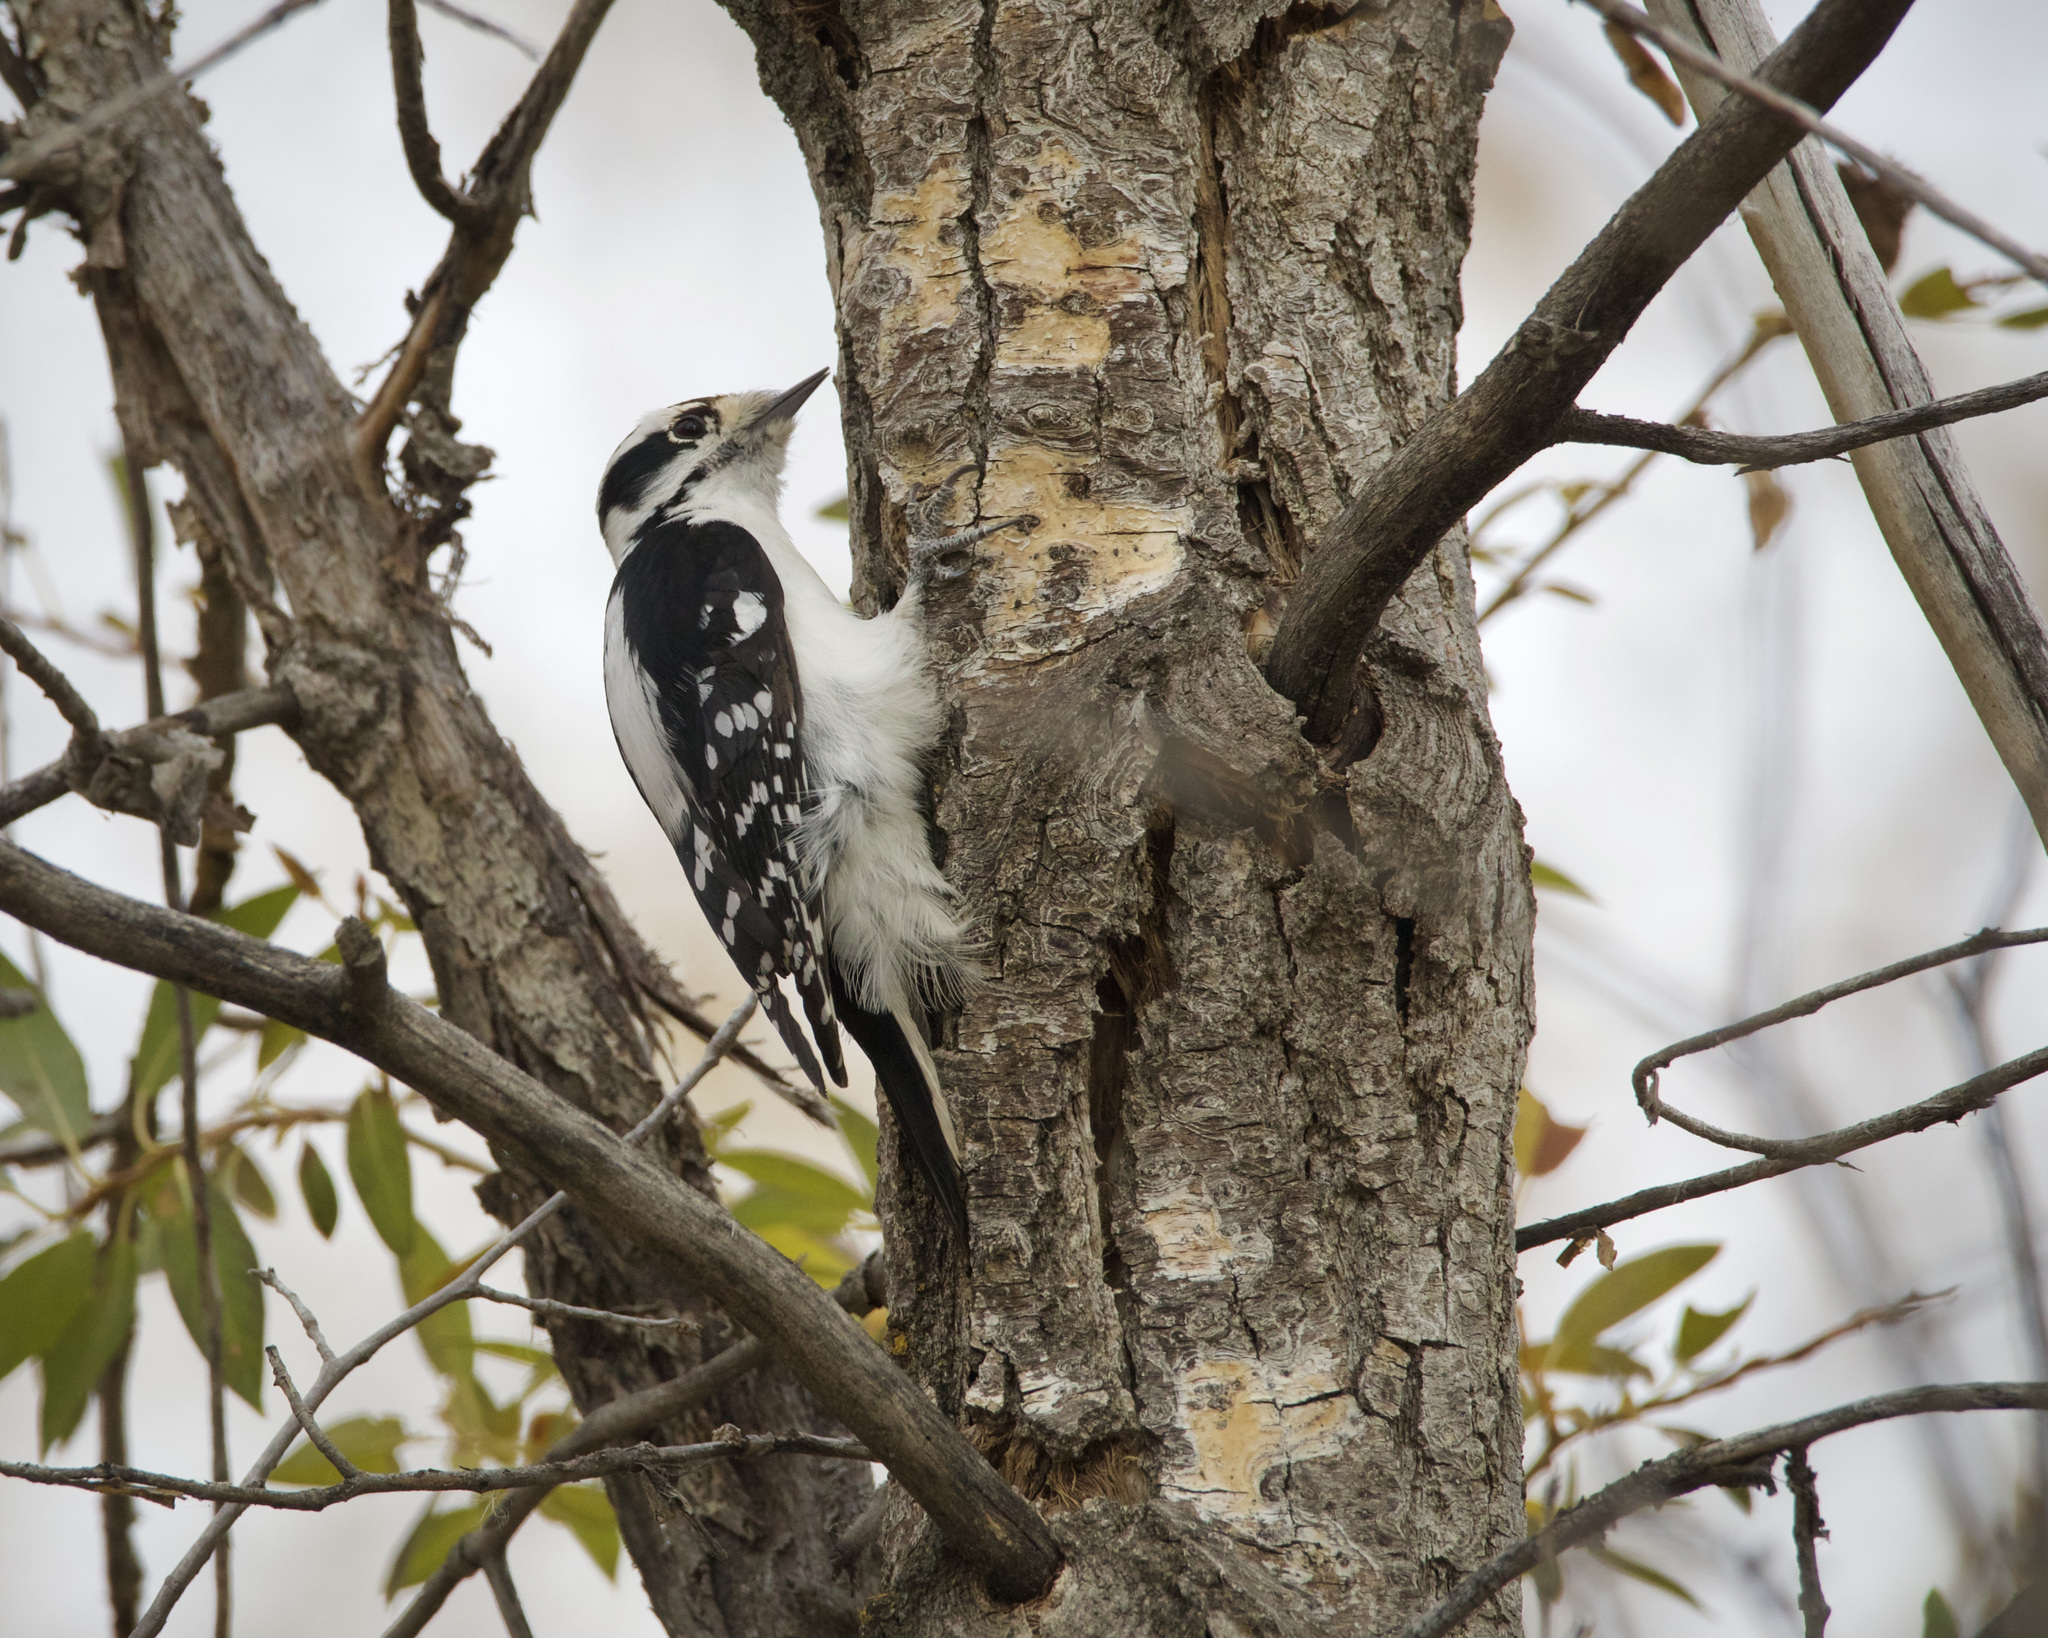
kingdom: Animalia
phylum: Chordata
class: Aves
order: Piciformes
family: Picidae
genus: Dryobates
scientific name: Dryobates pubescens
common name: Downy woodpecker
